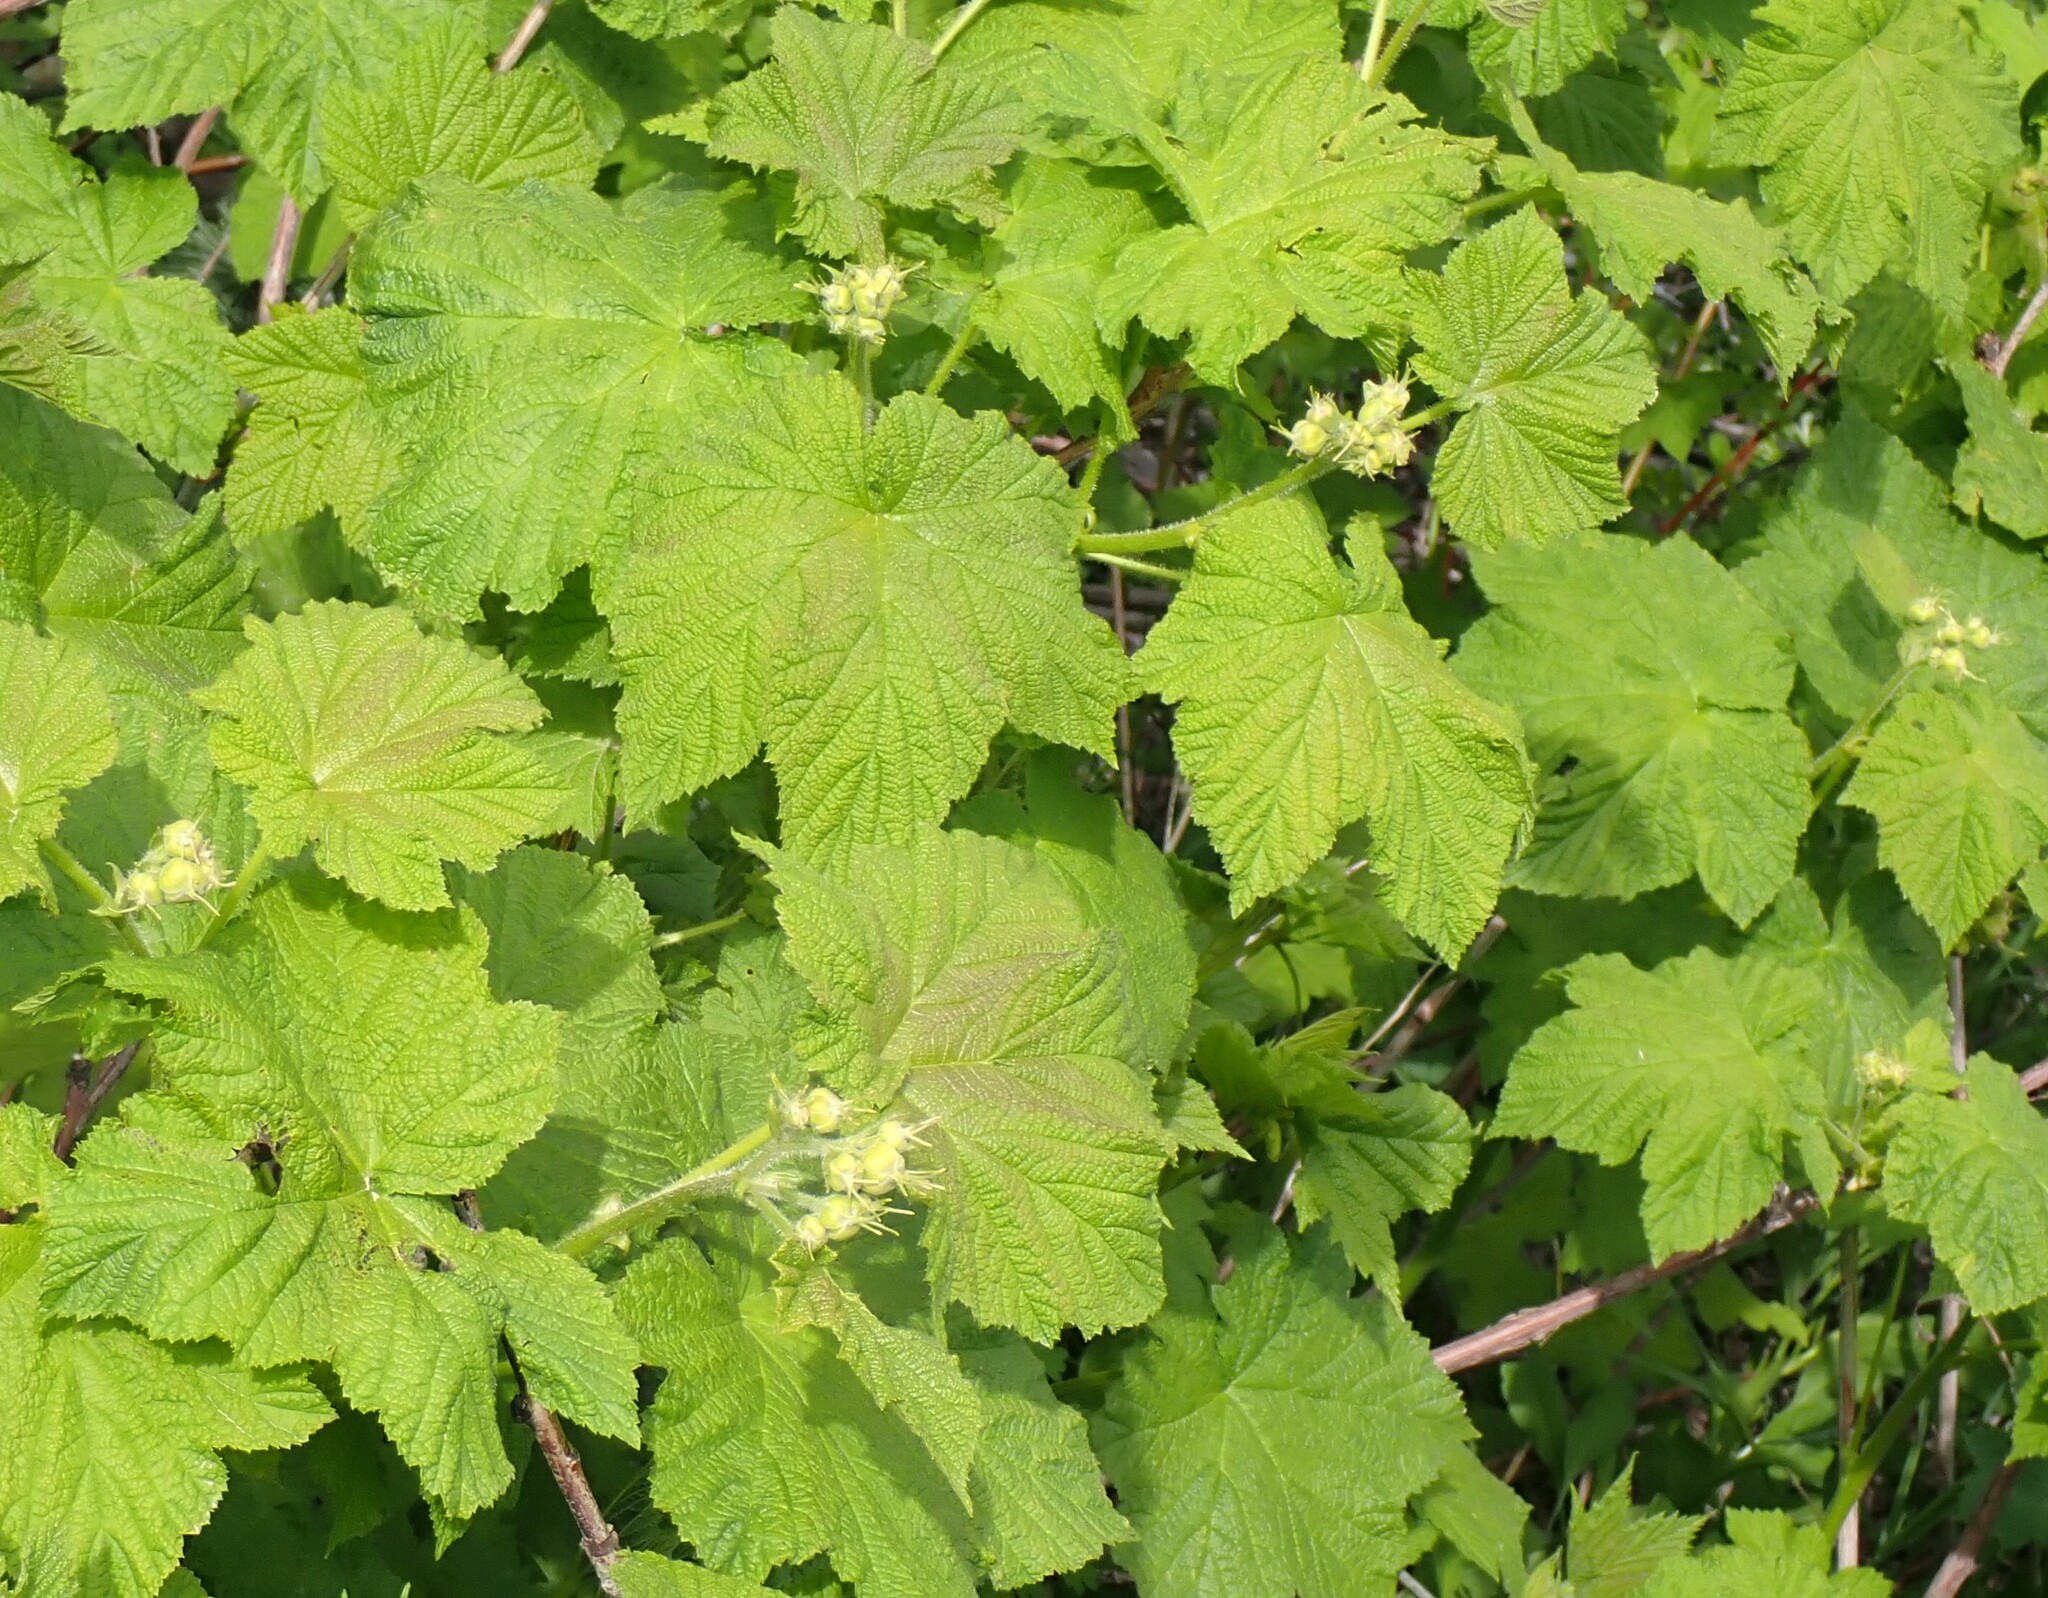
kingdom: Plantae
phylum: Tracheophyta
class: Magnoliopsida
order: Rosales
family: Rosaceae
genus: Rubus
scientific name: Rubus parviflorus
